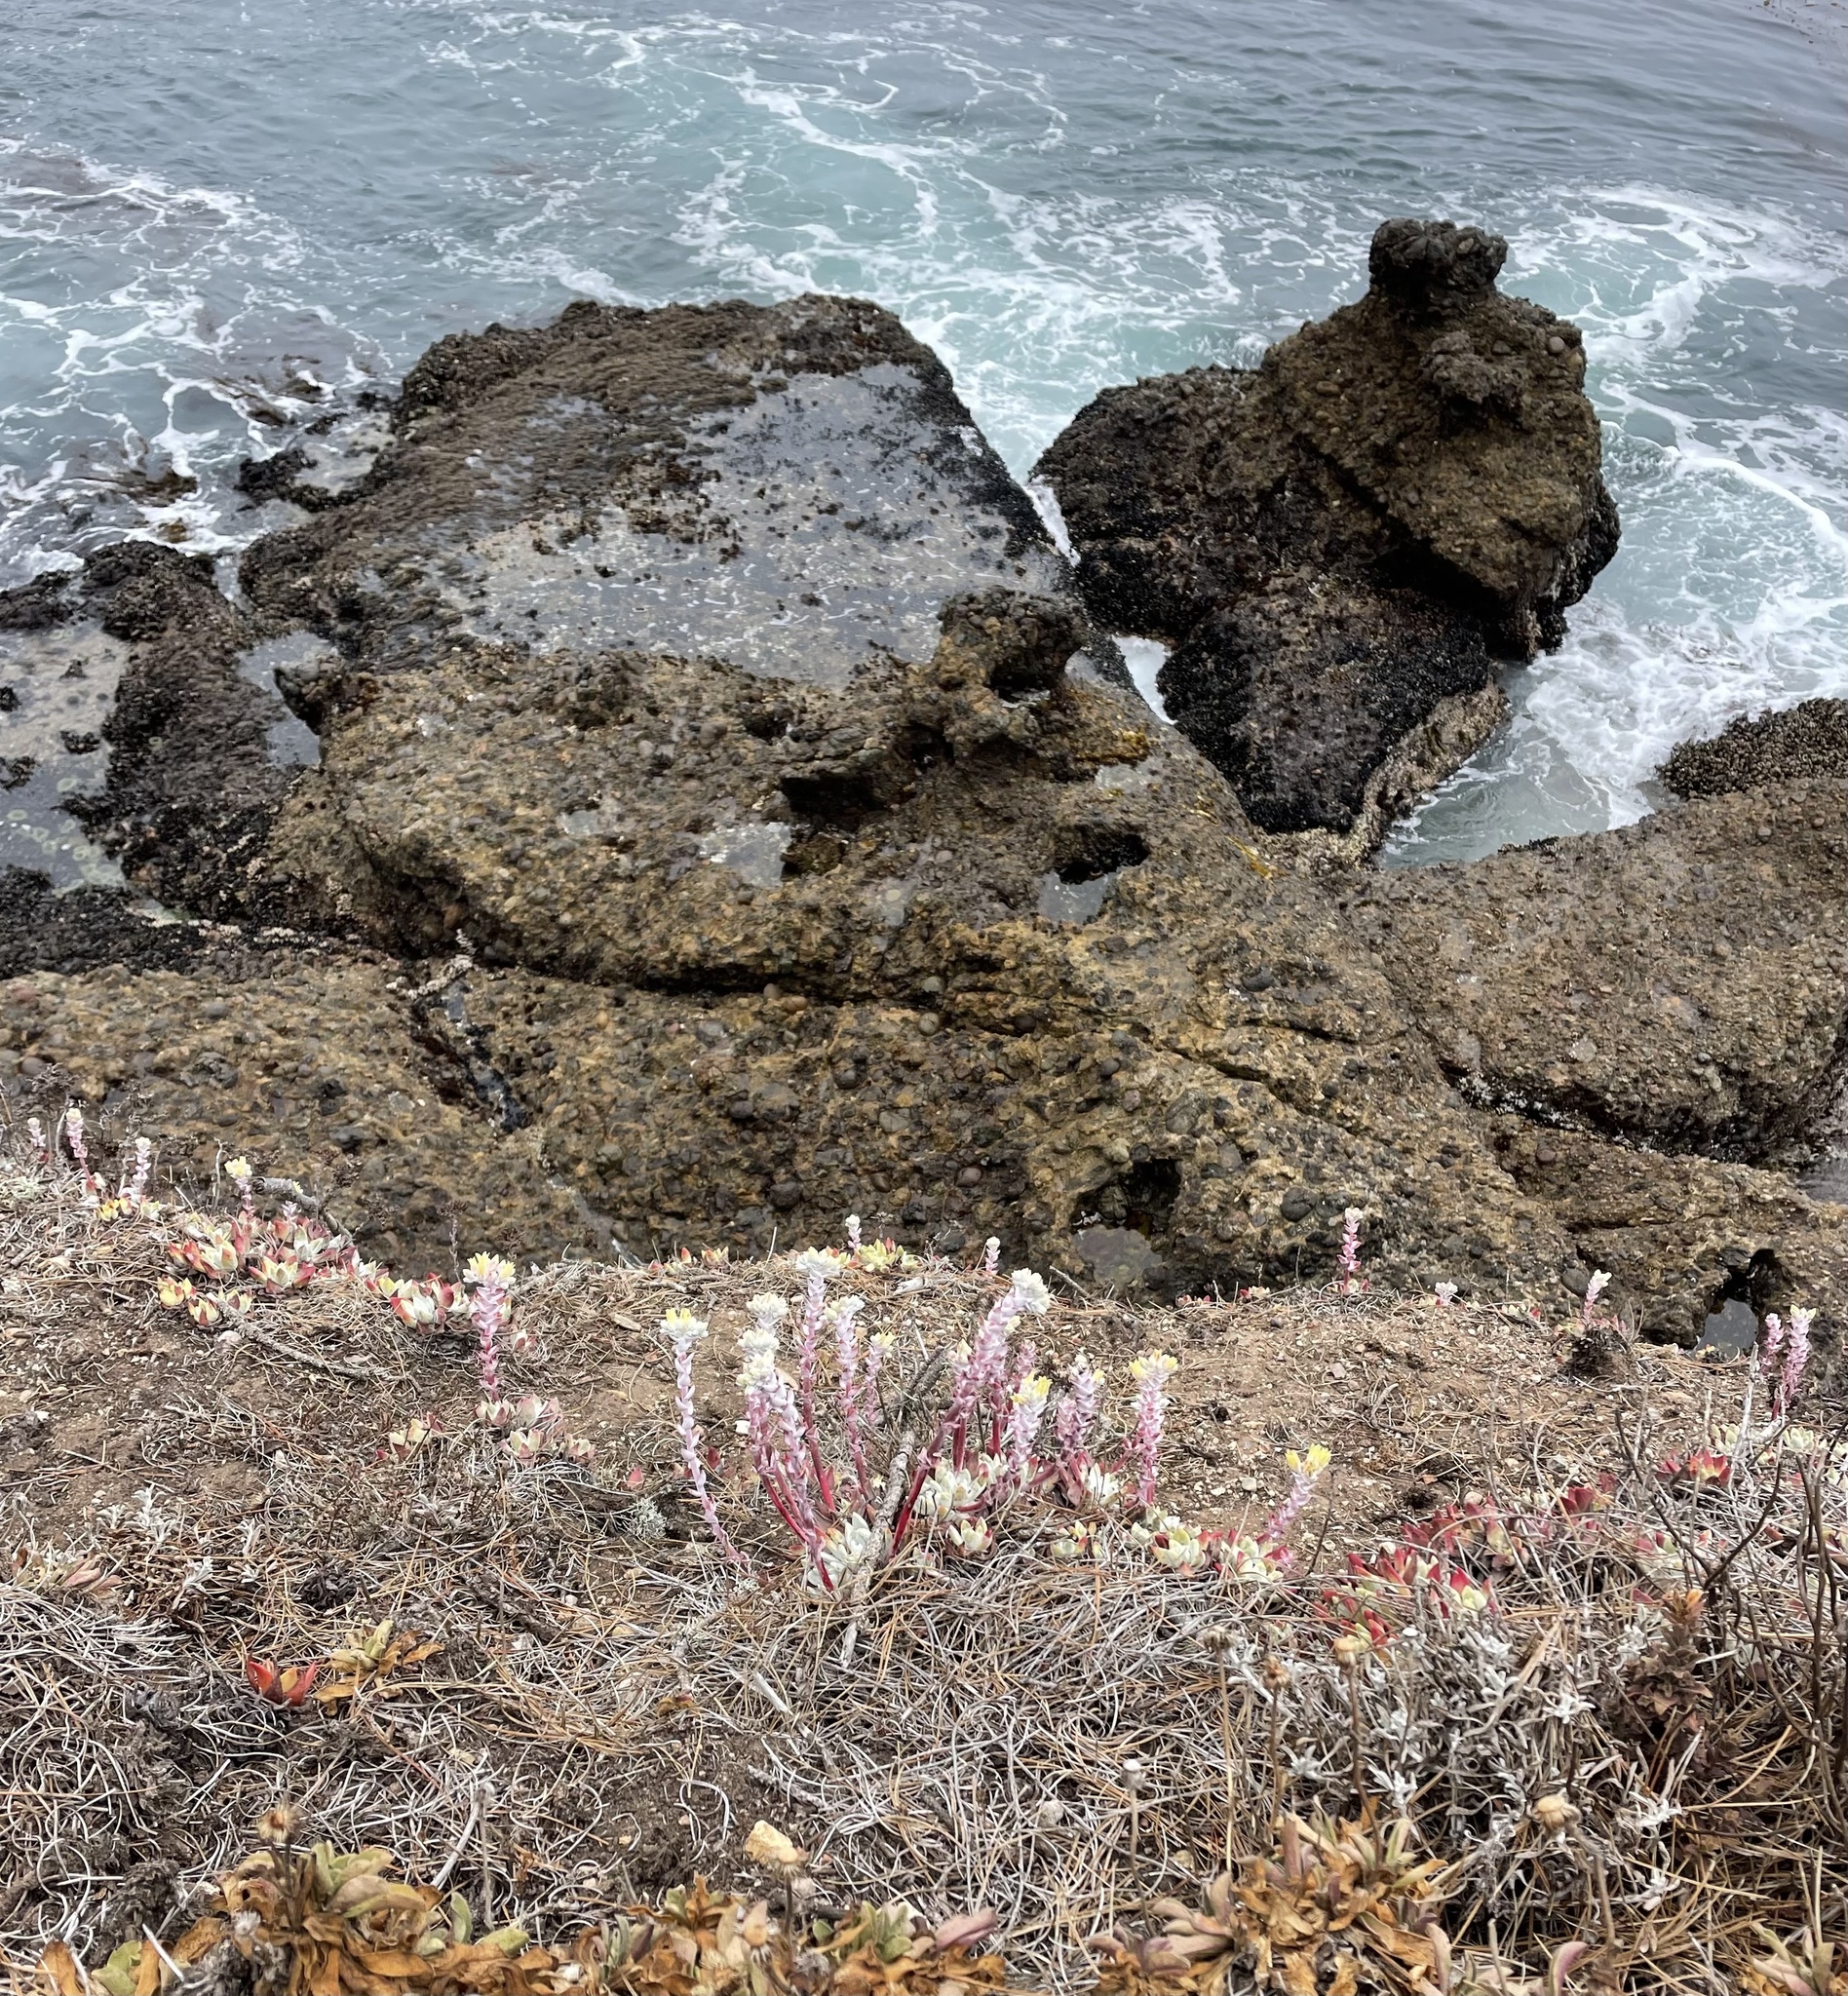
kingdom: Plantae
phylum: Tracheophyta
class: Magnoliopsida
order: Saxifragales
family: Crassulaceae
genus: Dudleya
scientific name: Dudleya farinosa
